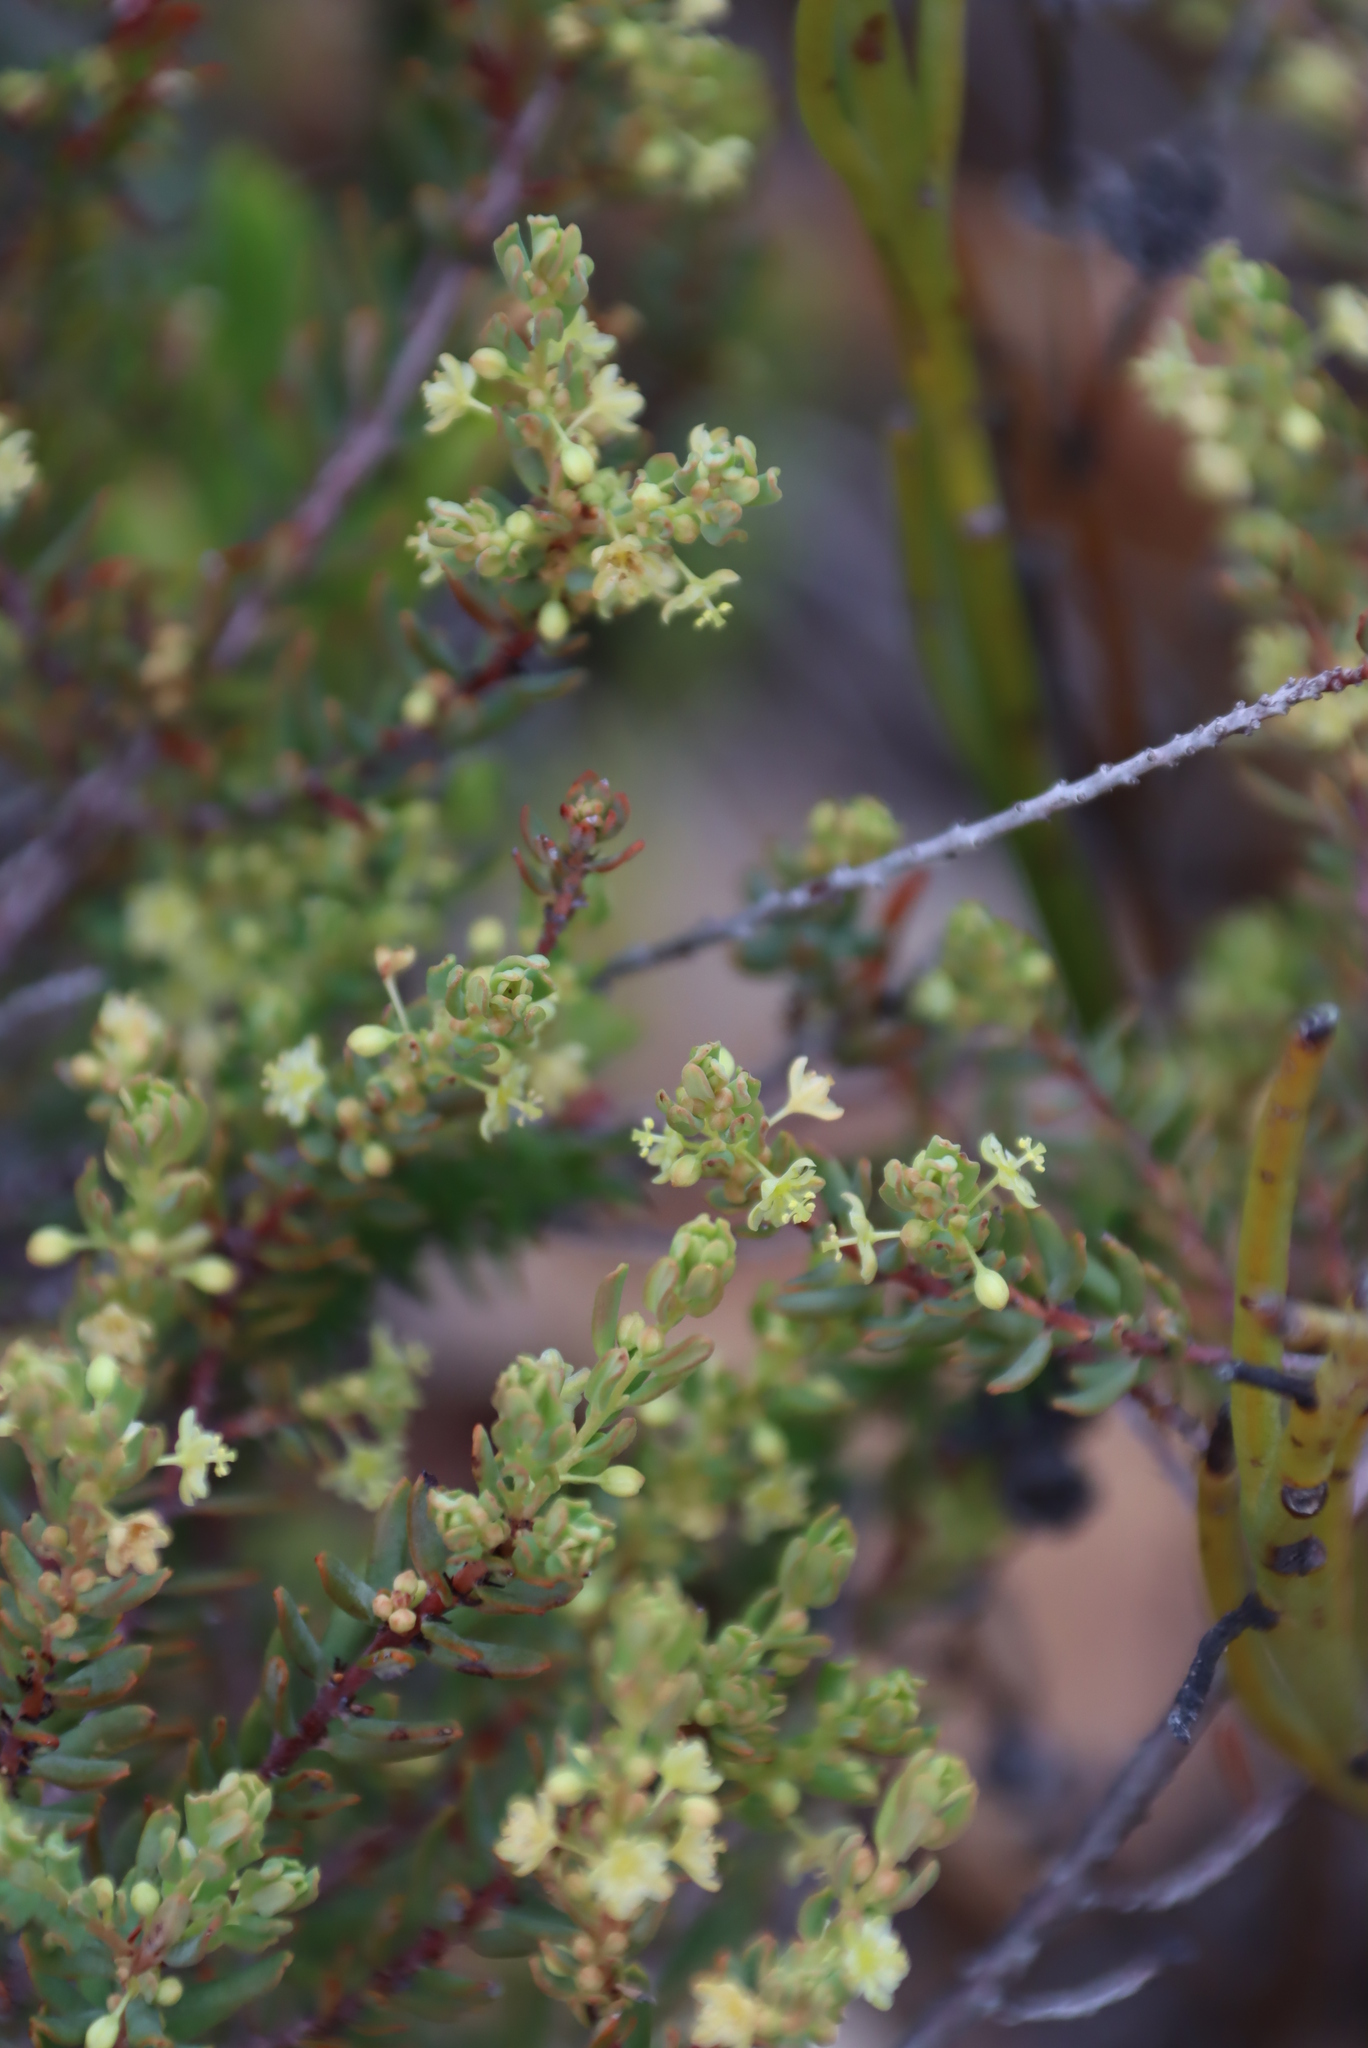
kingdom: Plantae
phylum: Tracheophyta
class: Magnoliopsida
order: Malpighiales
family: Peraceae
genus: Clutia
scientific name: Clutia polifolia
